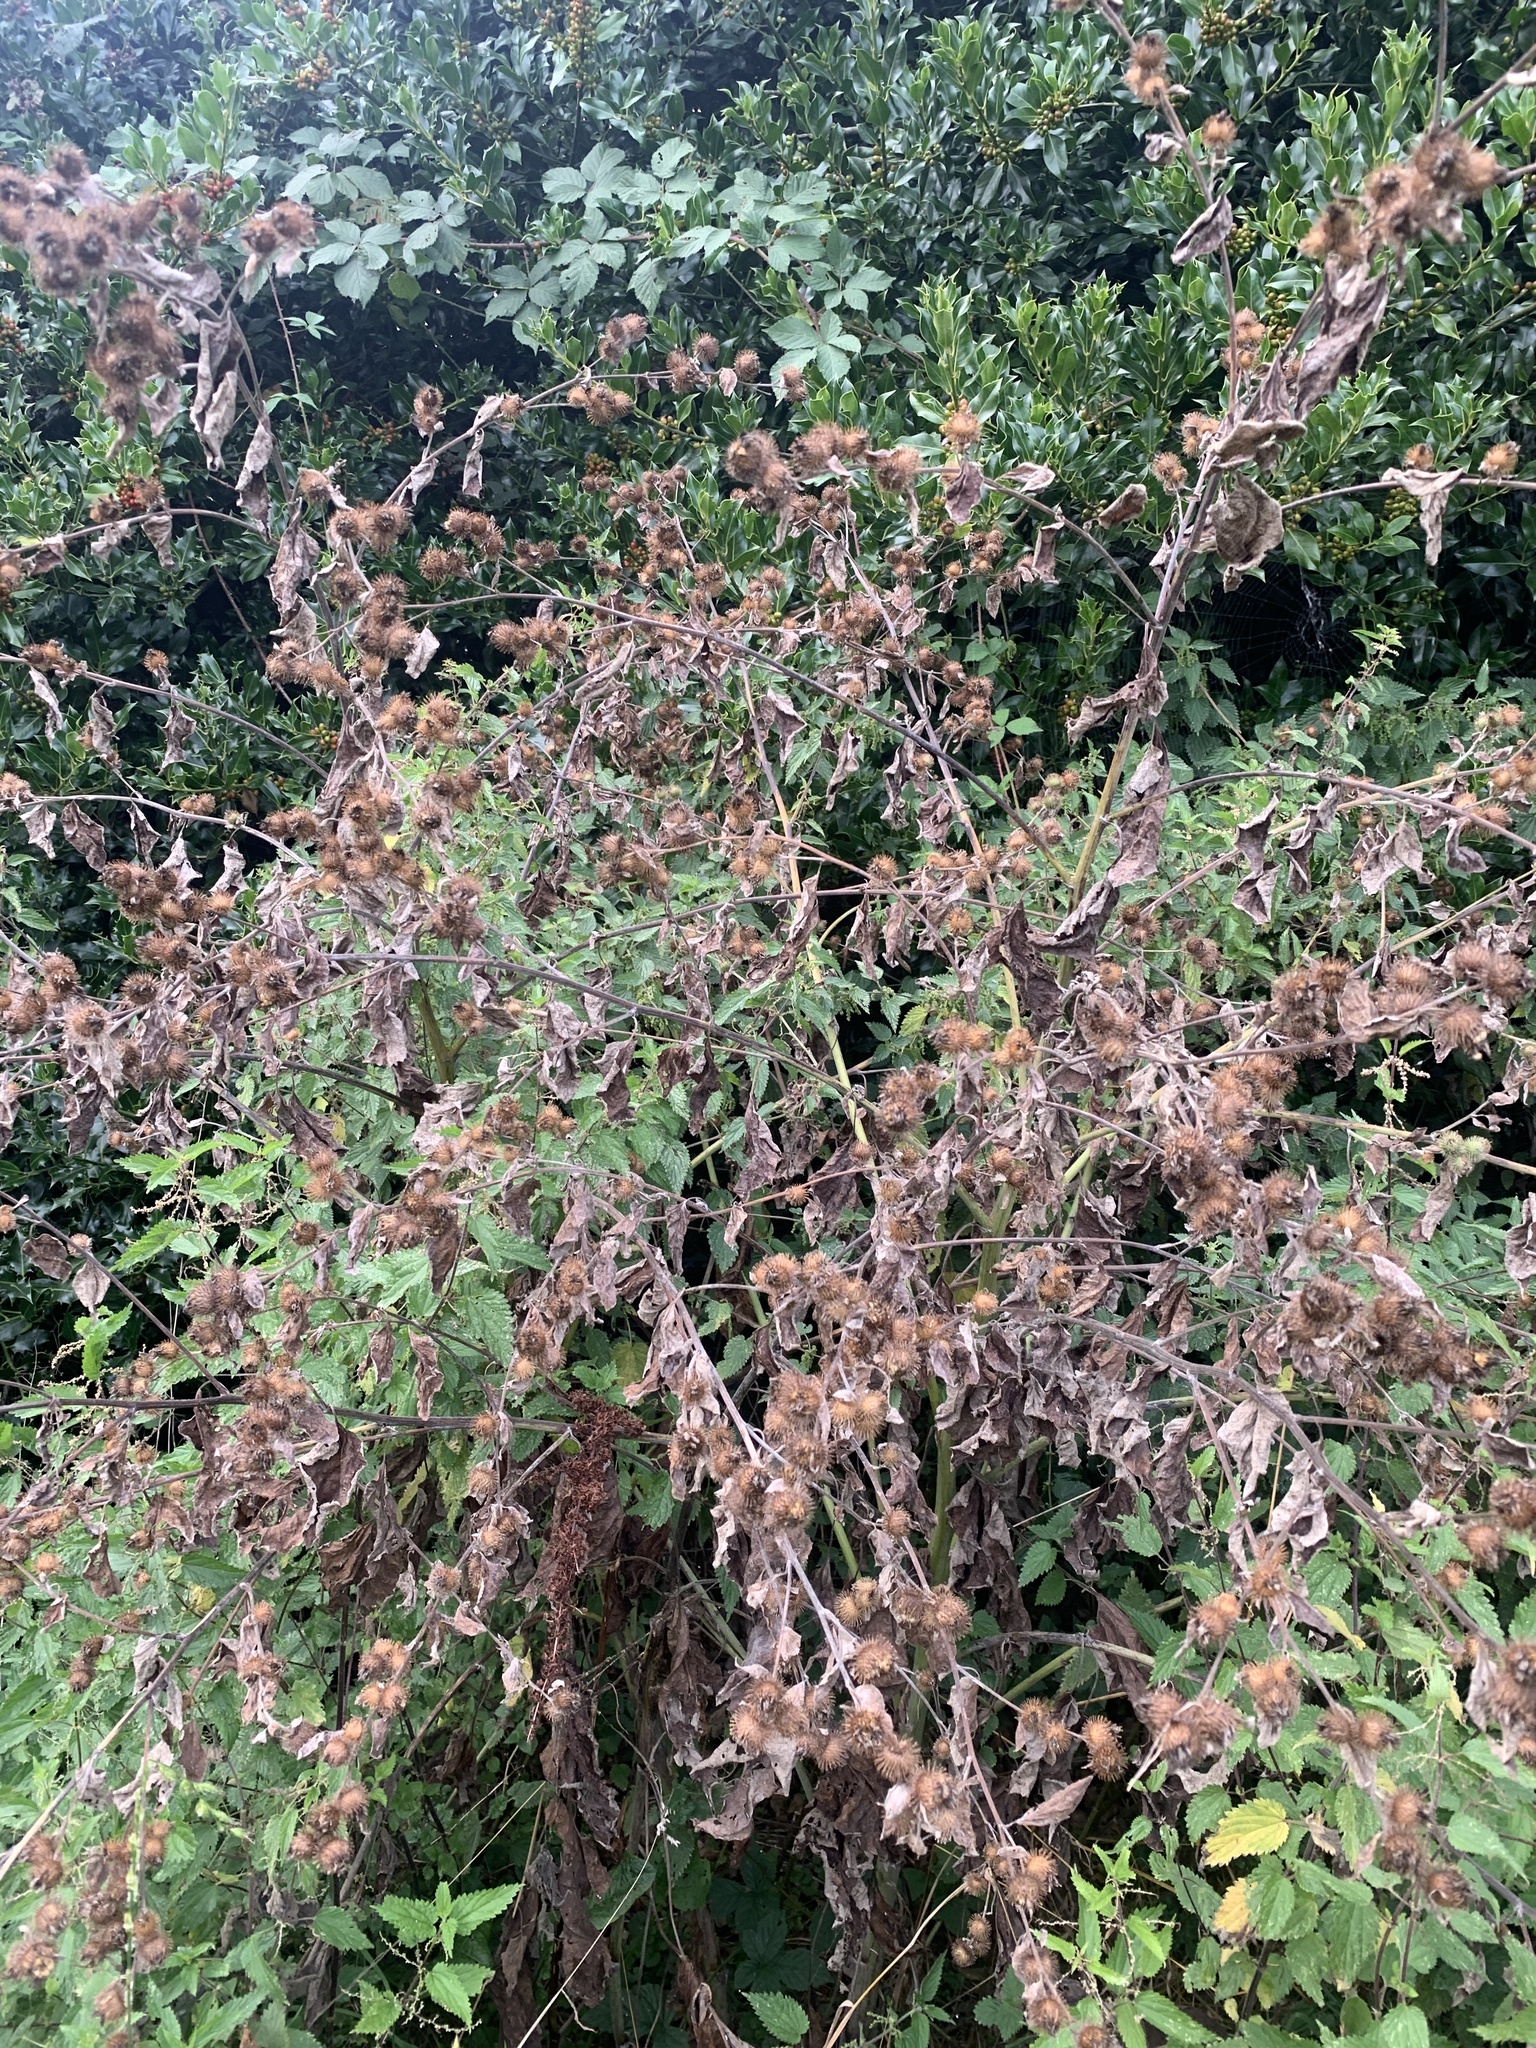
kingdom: Plantae
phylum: Tracheophyta
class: Magnoliopsida
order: Asterales
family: Asteraceae
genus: Arctium
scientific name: Arctium lappa
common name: Greater burdock
